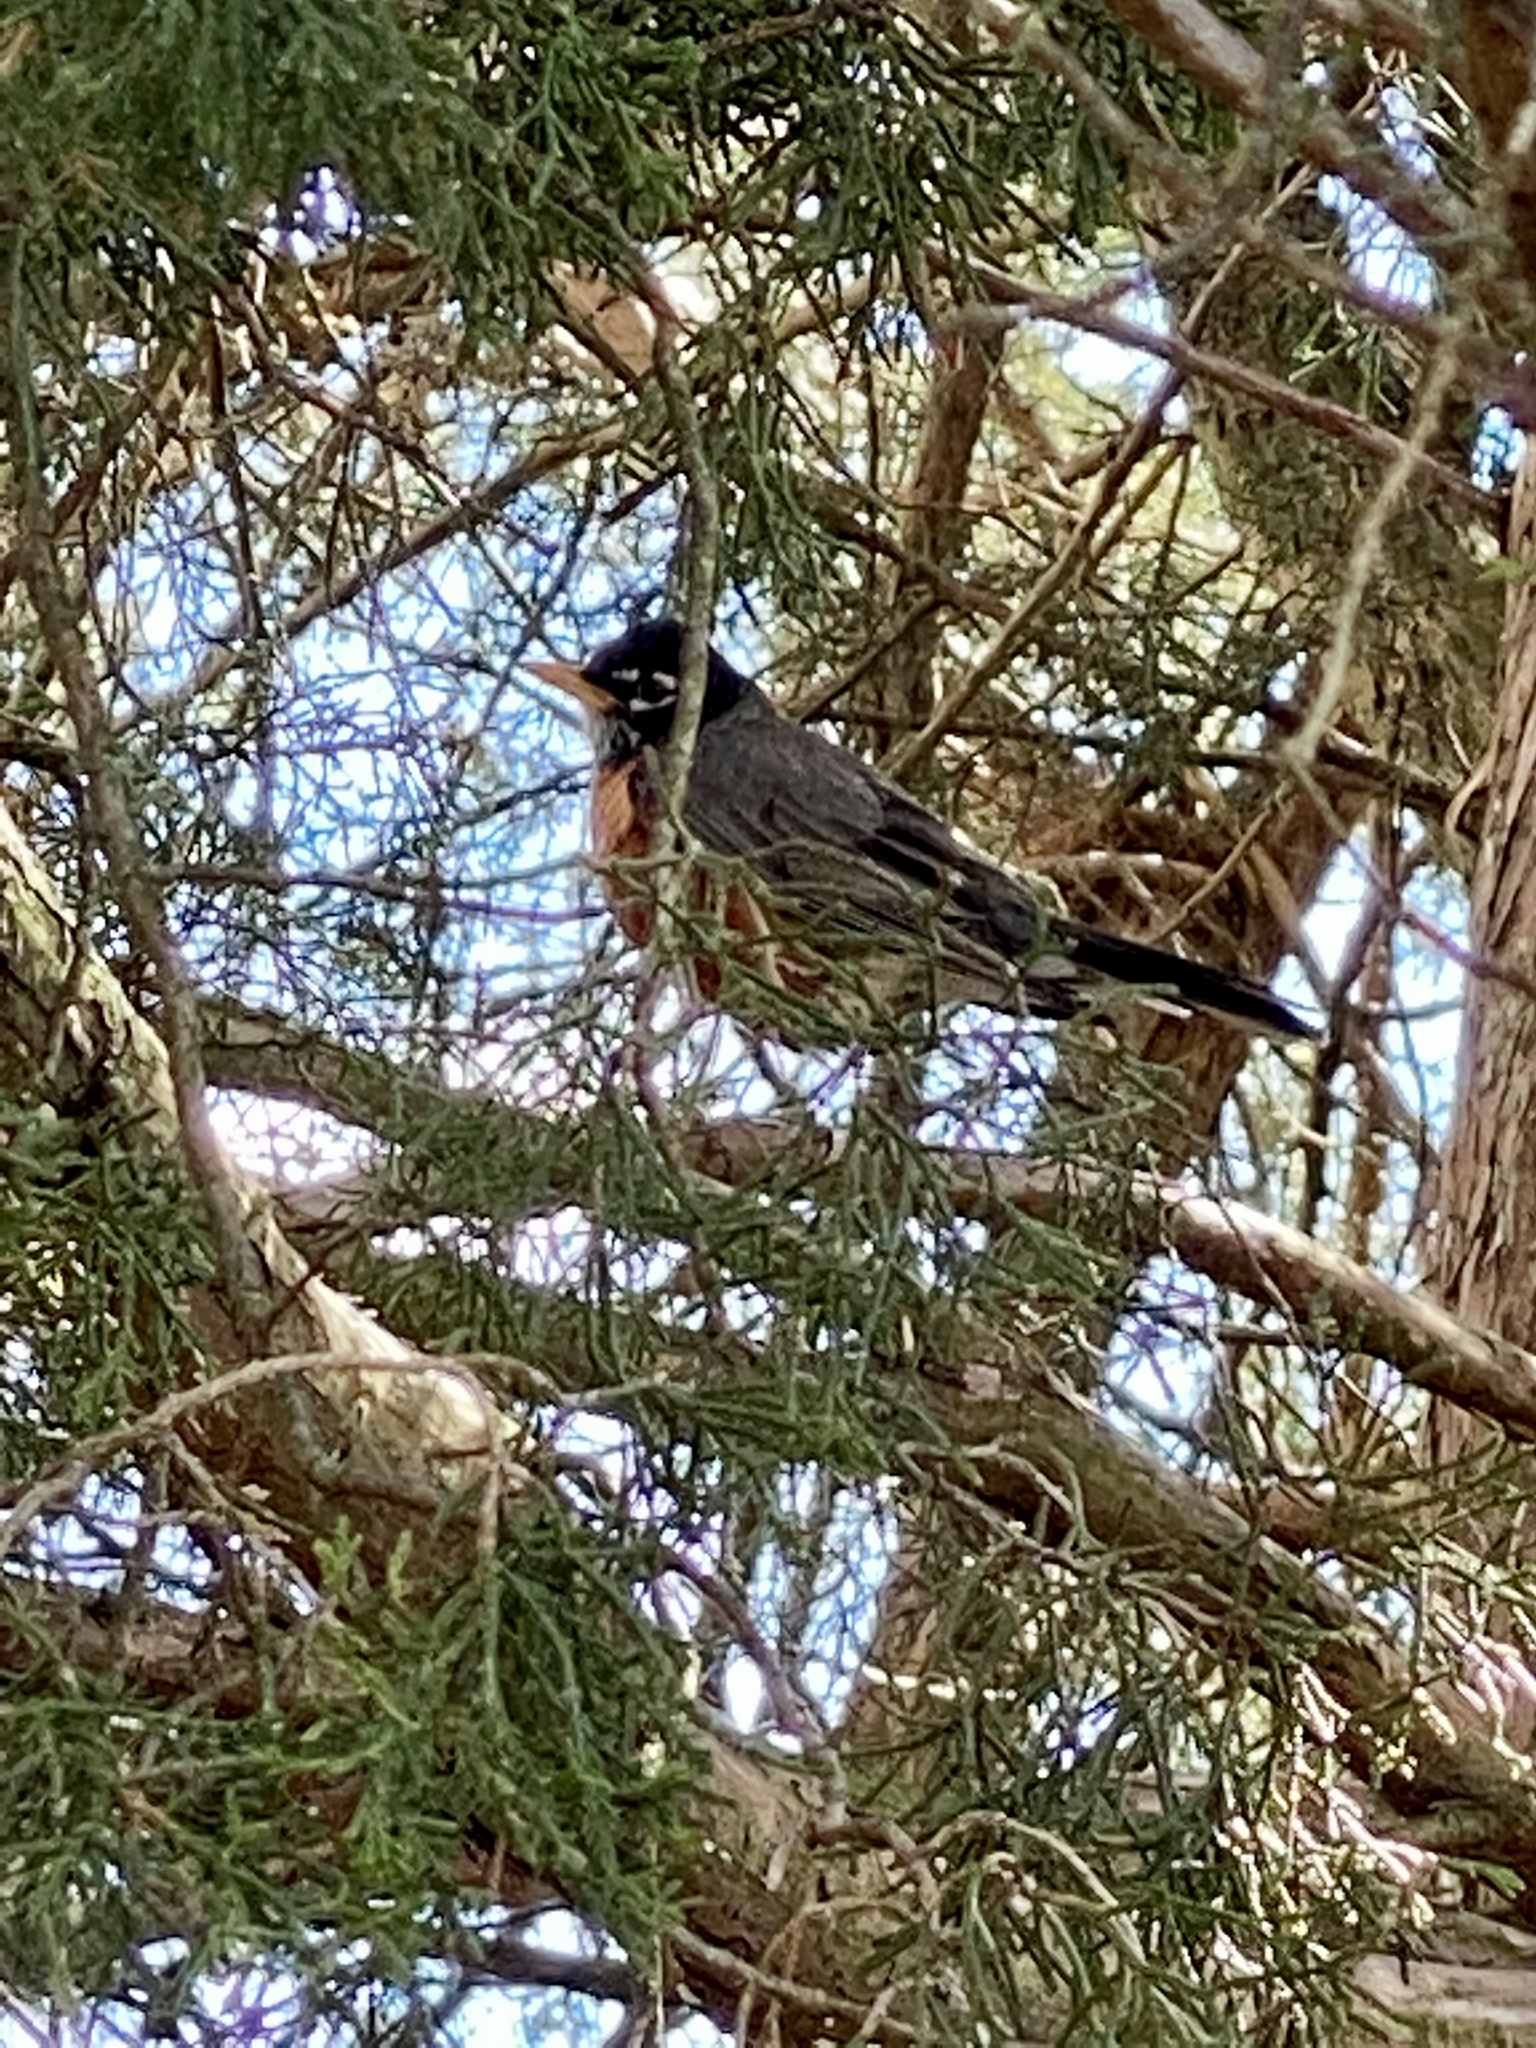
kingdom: Animalia
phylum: Chordata
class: Aves
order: Passeriformes
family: Turdidae
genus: Turdus
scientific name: Turdus migratorius
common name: American robin
